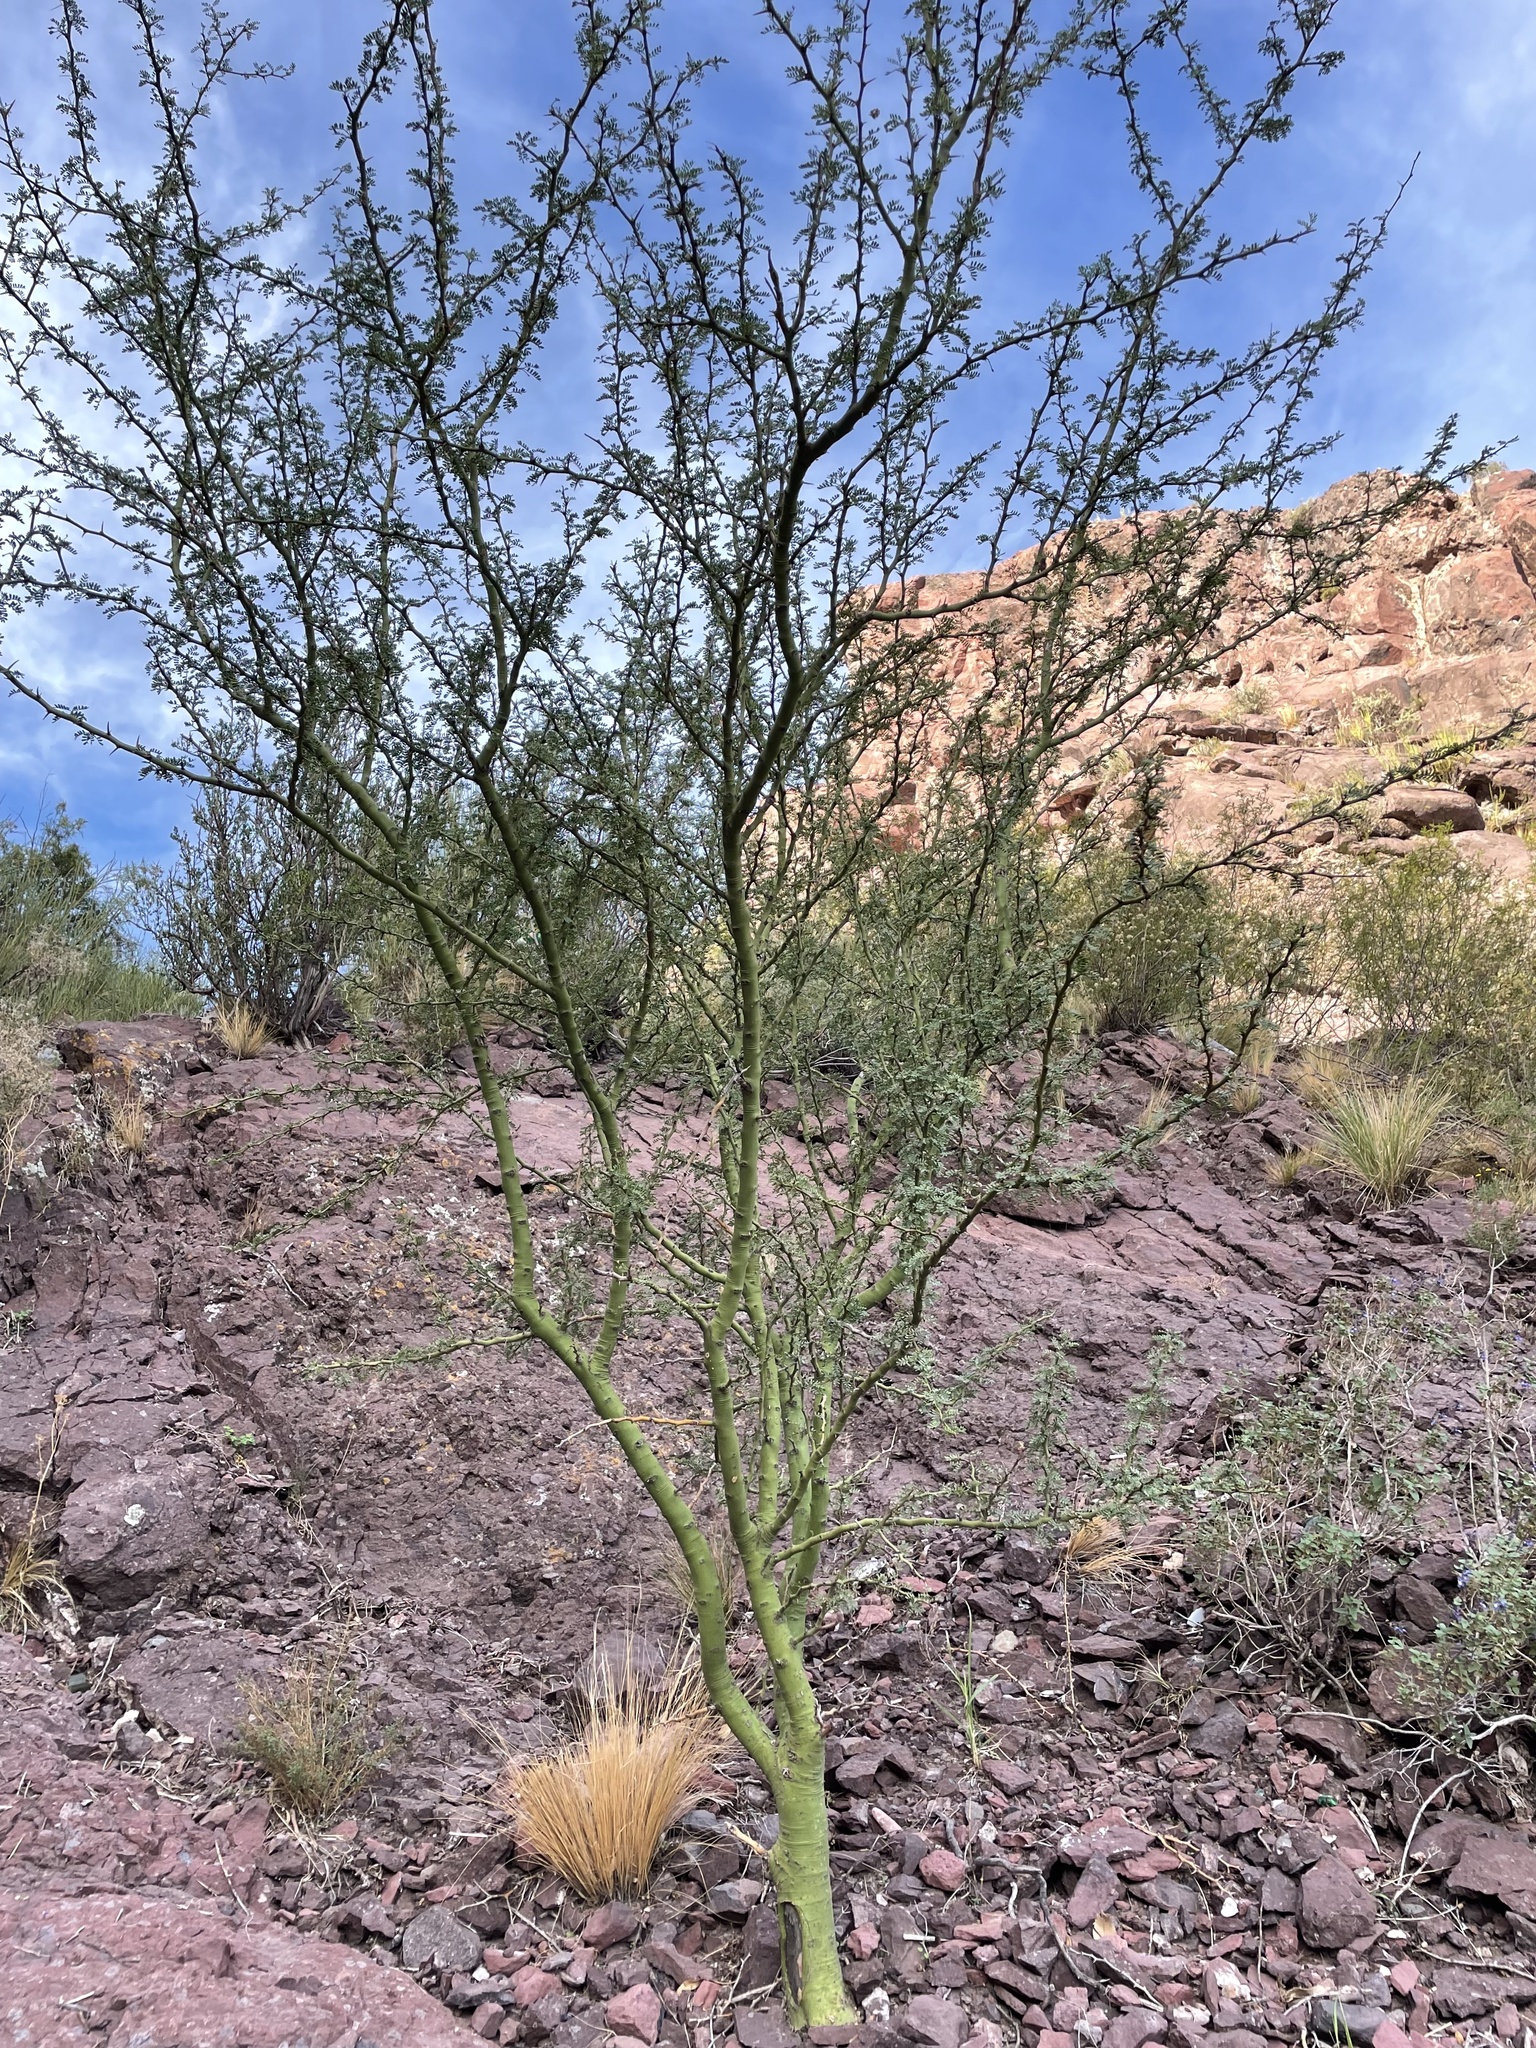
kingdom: Plantae
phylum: Tracheophyta
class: Magnoliopsida
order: Fabales
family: Fabaceae
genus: Parkinsonia
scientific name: Parkinsonia praecox
